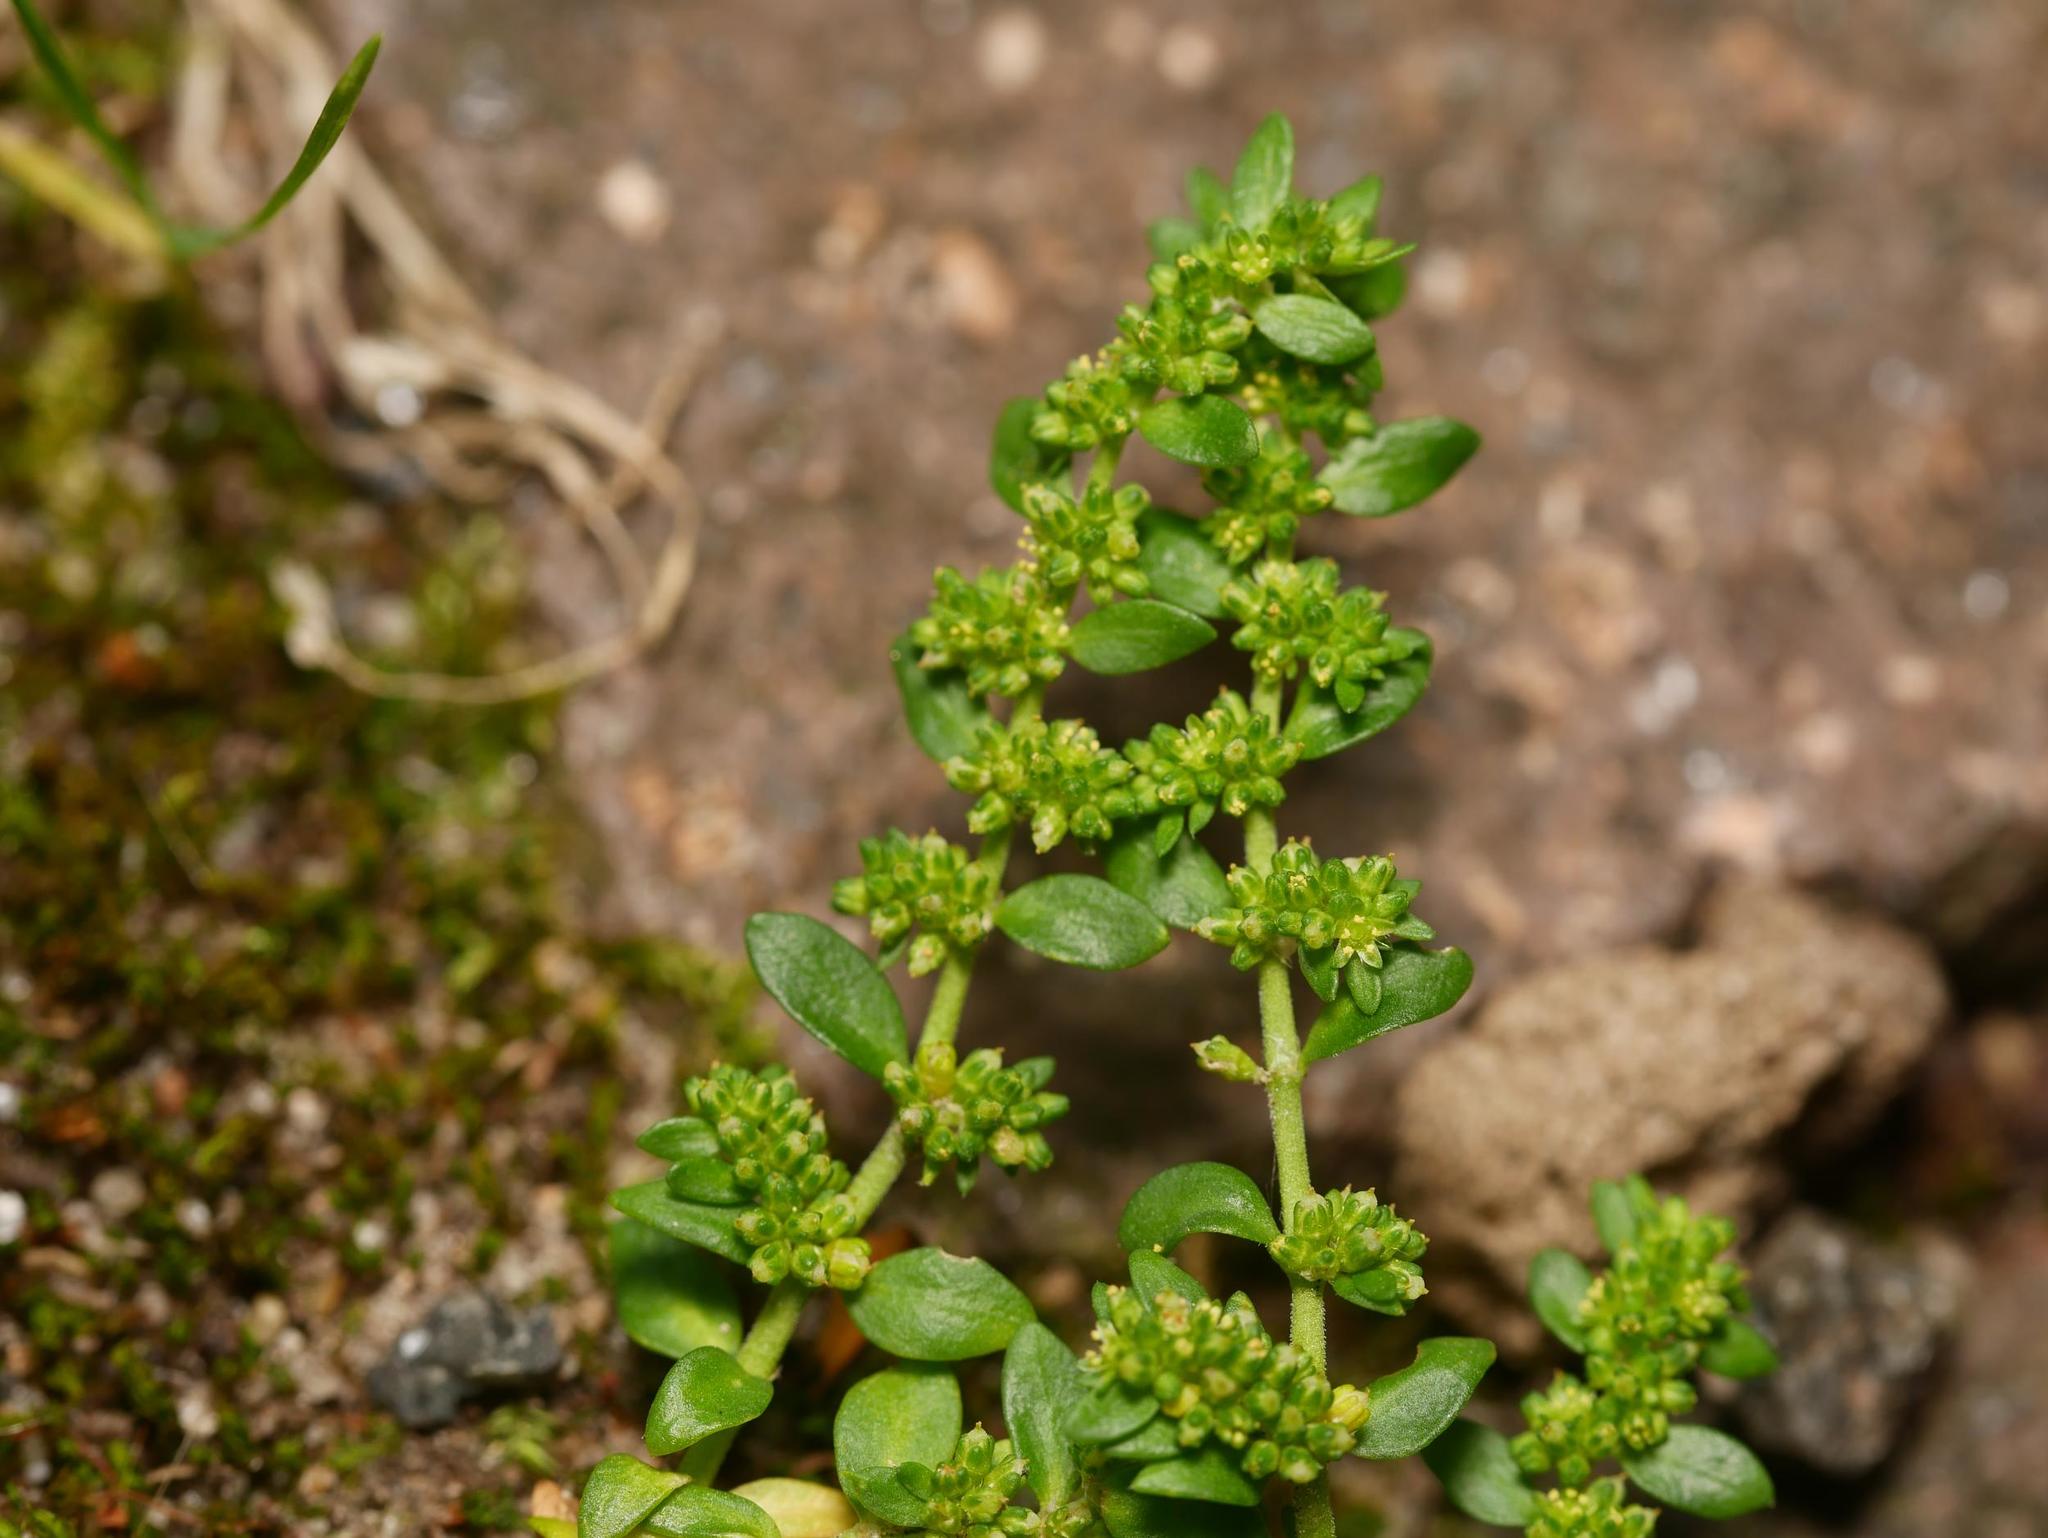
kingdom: Plantae
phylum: Tracheophyta
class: Magnoliopsida
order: Caryophyllales
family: Caryophyllaceae
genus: Herniaria
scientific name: Herniaria glabra
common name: Smooth rupturewort
